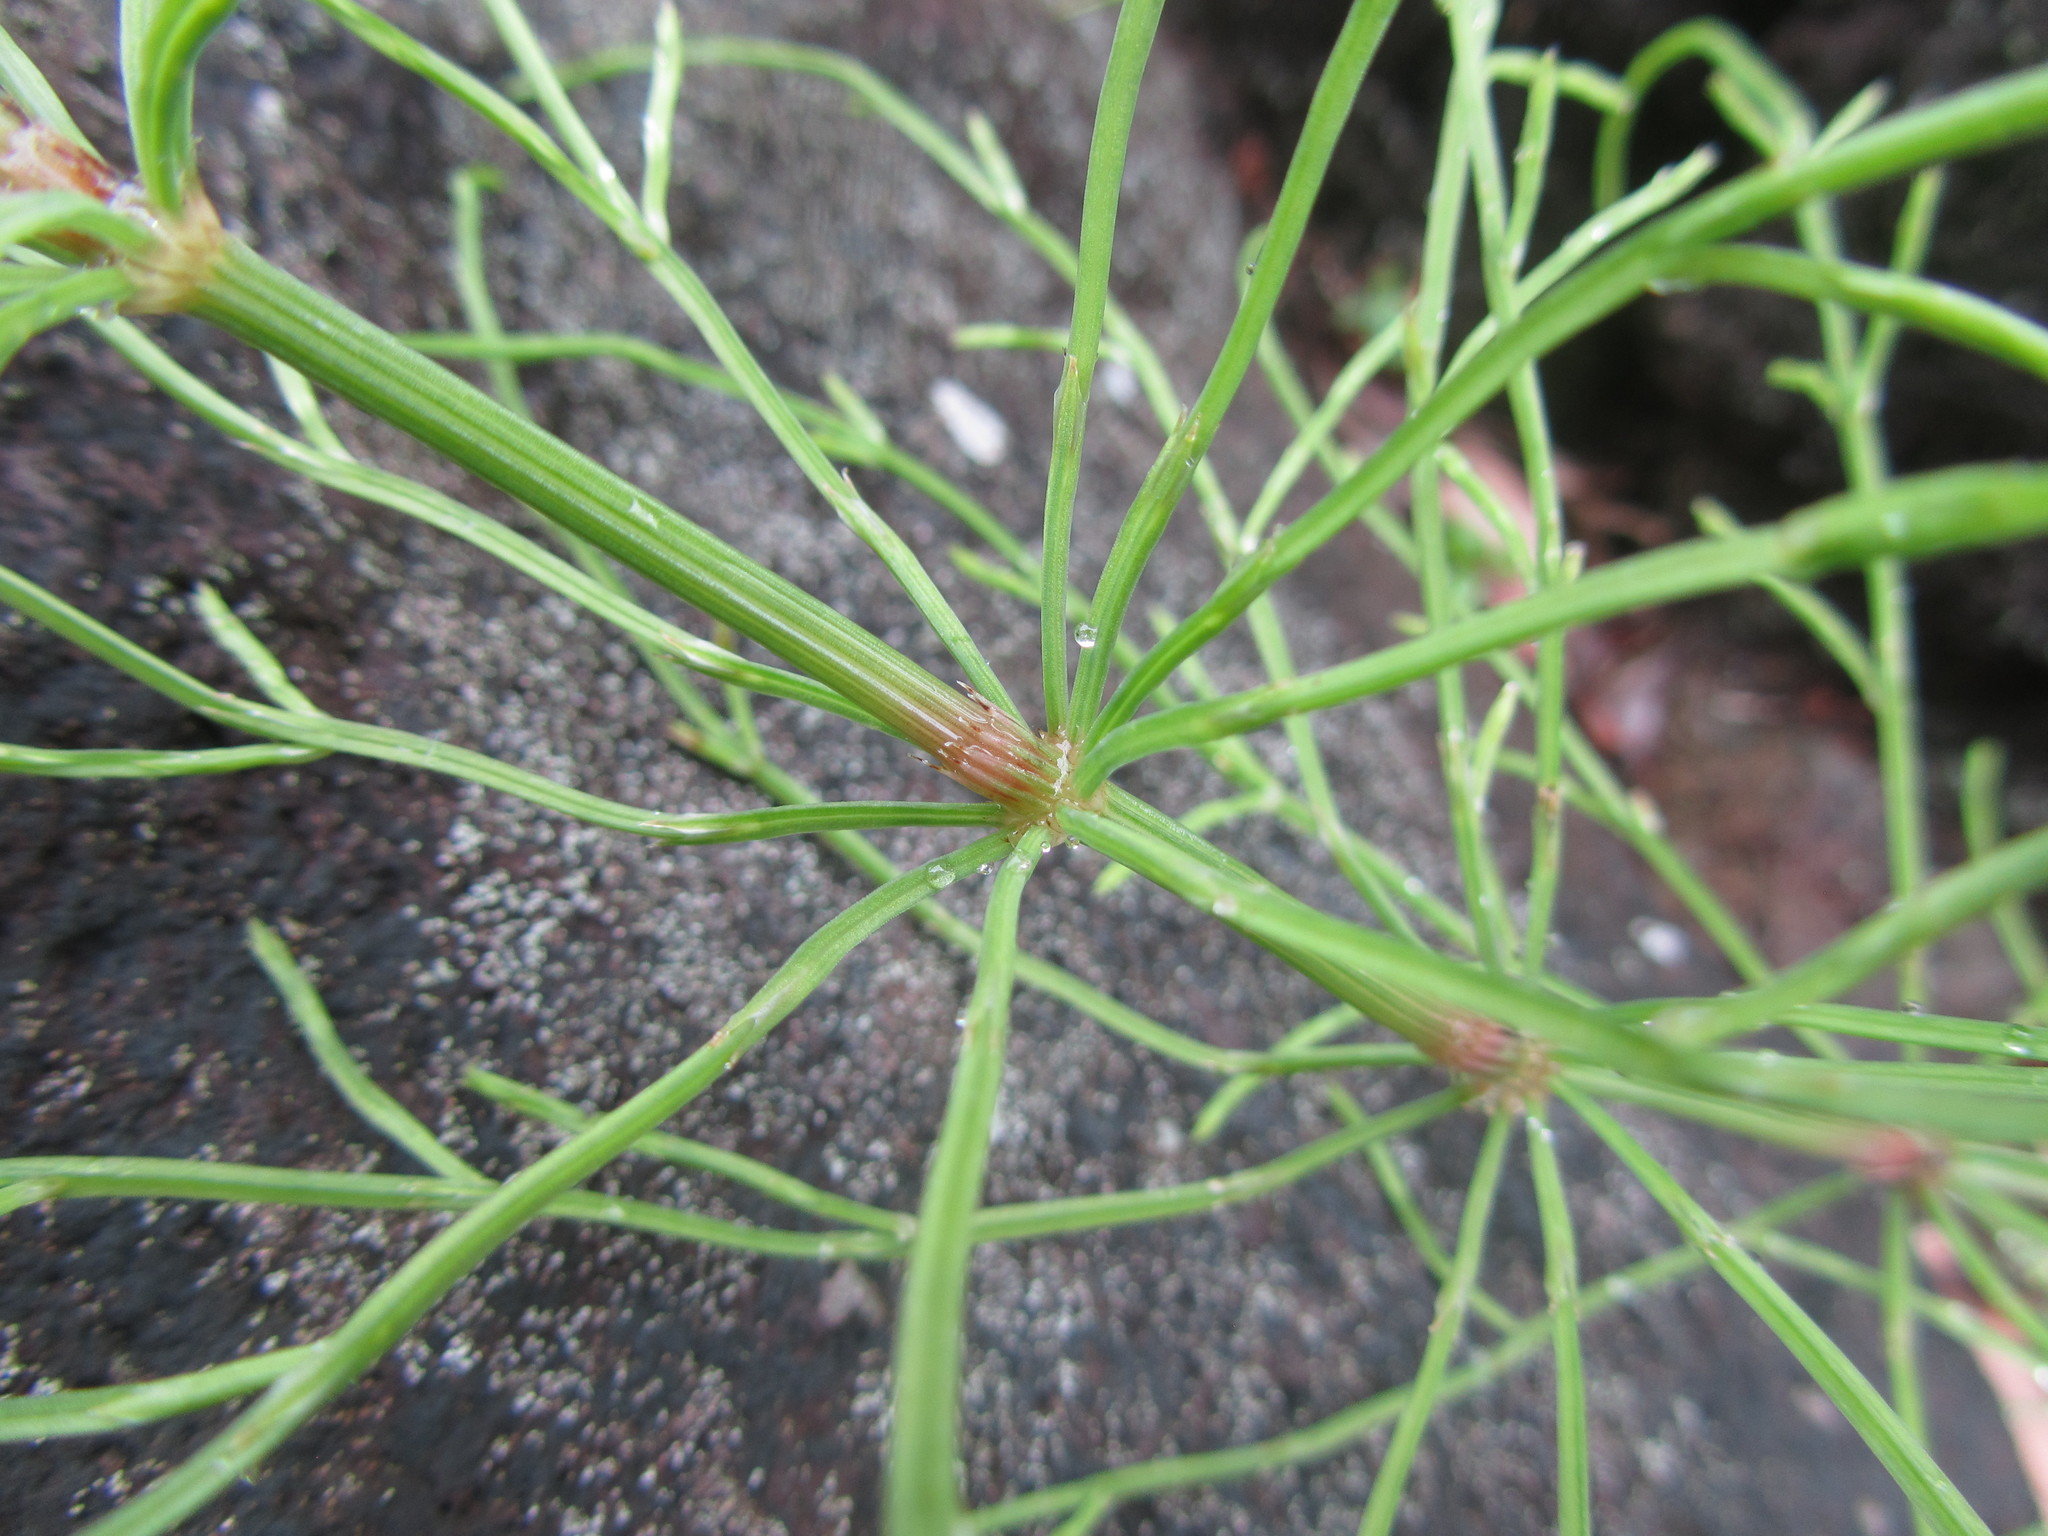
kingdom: Plantae
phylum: Tracheophyta
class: Polypodiopsida
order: Equisetales
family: Equisetaceae
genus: Equisetum
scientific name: Equisetum arvense
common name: Field horsetail
